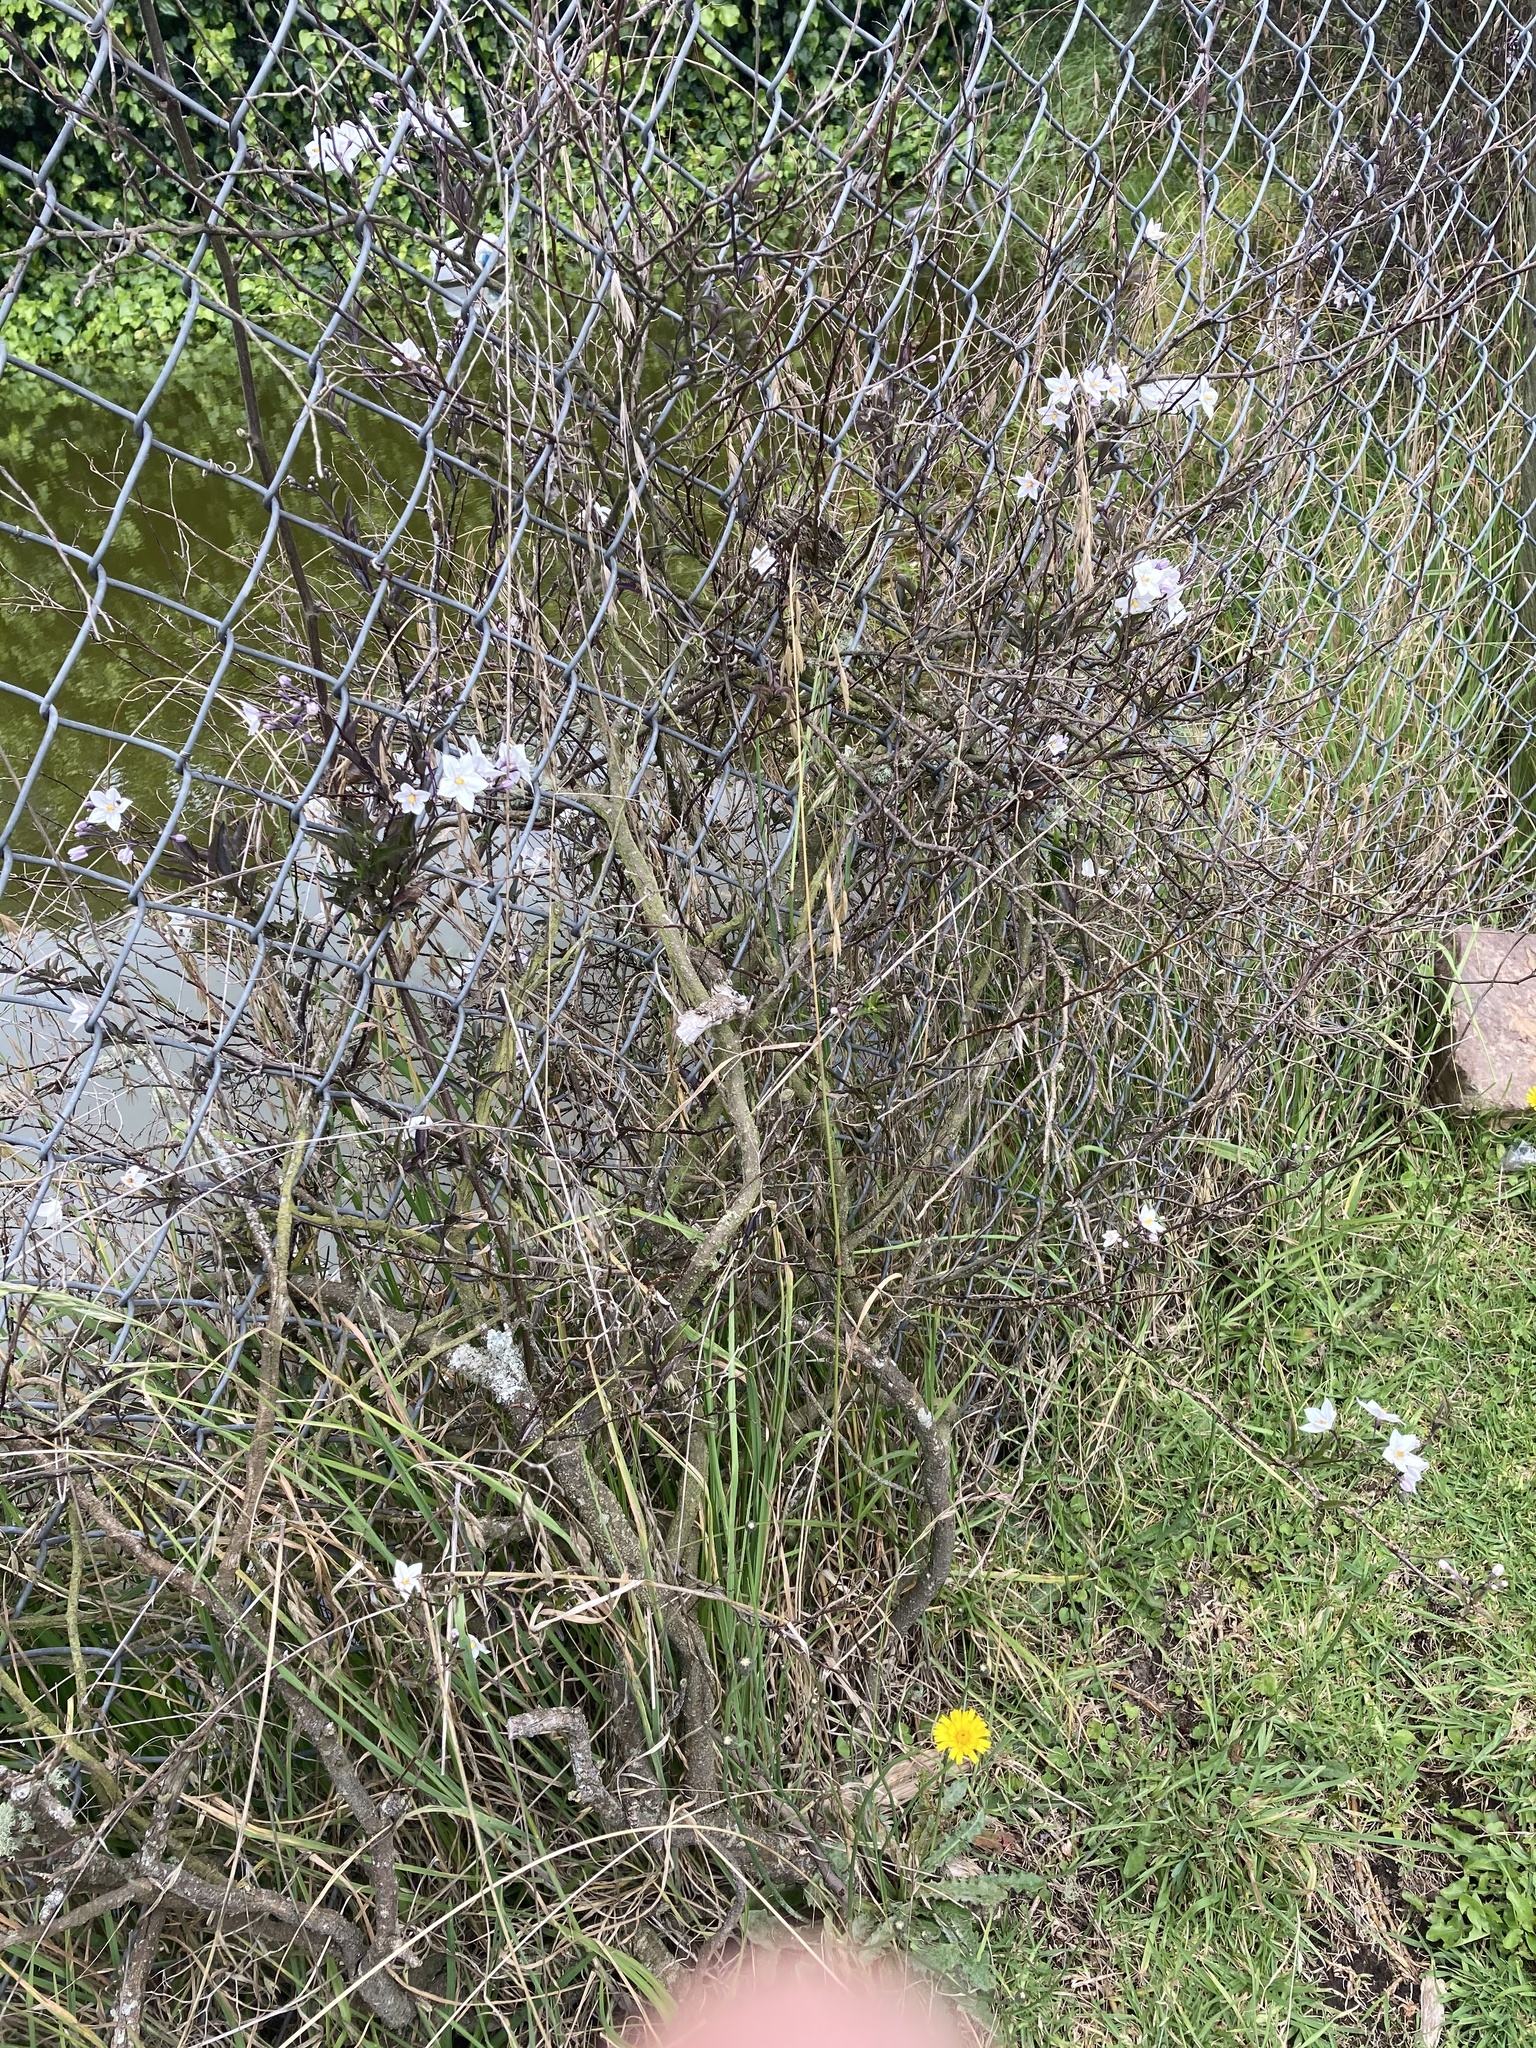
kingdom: Plantae
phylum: Tracheophyta
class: Magnoliopsida
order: Solanales
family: Solanaceae
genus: Solanum
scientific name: Solanum laxum
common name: Nightshade
